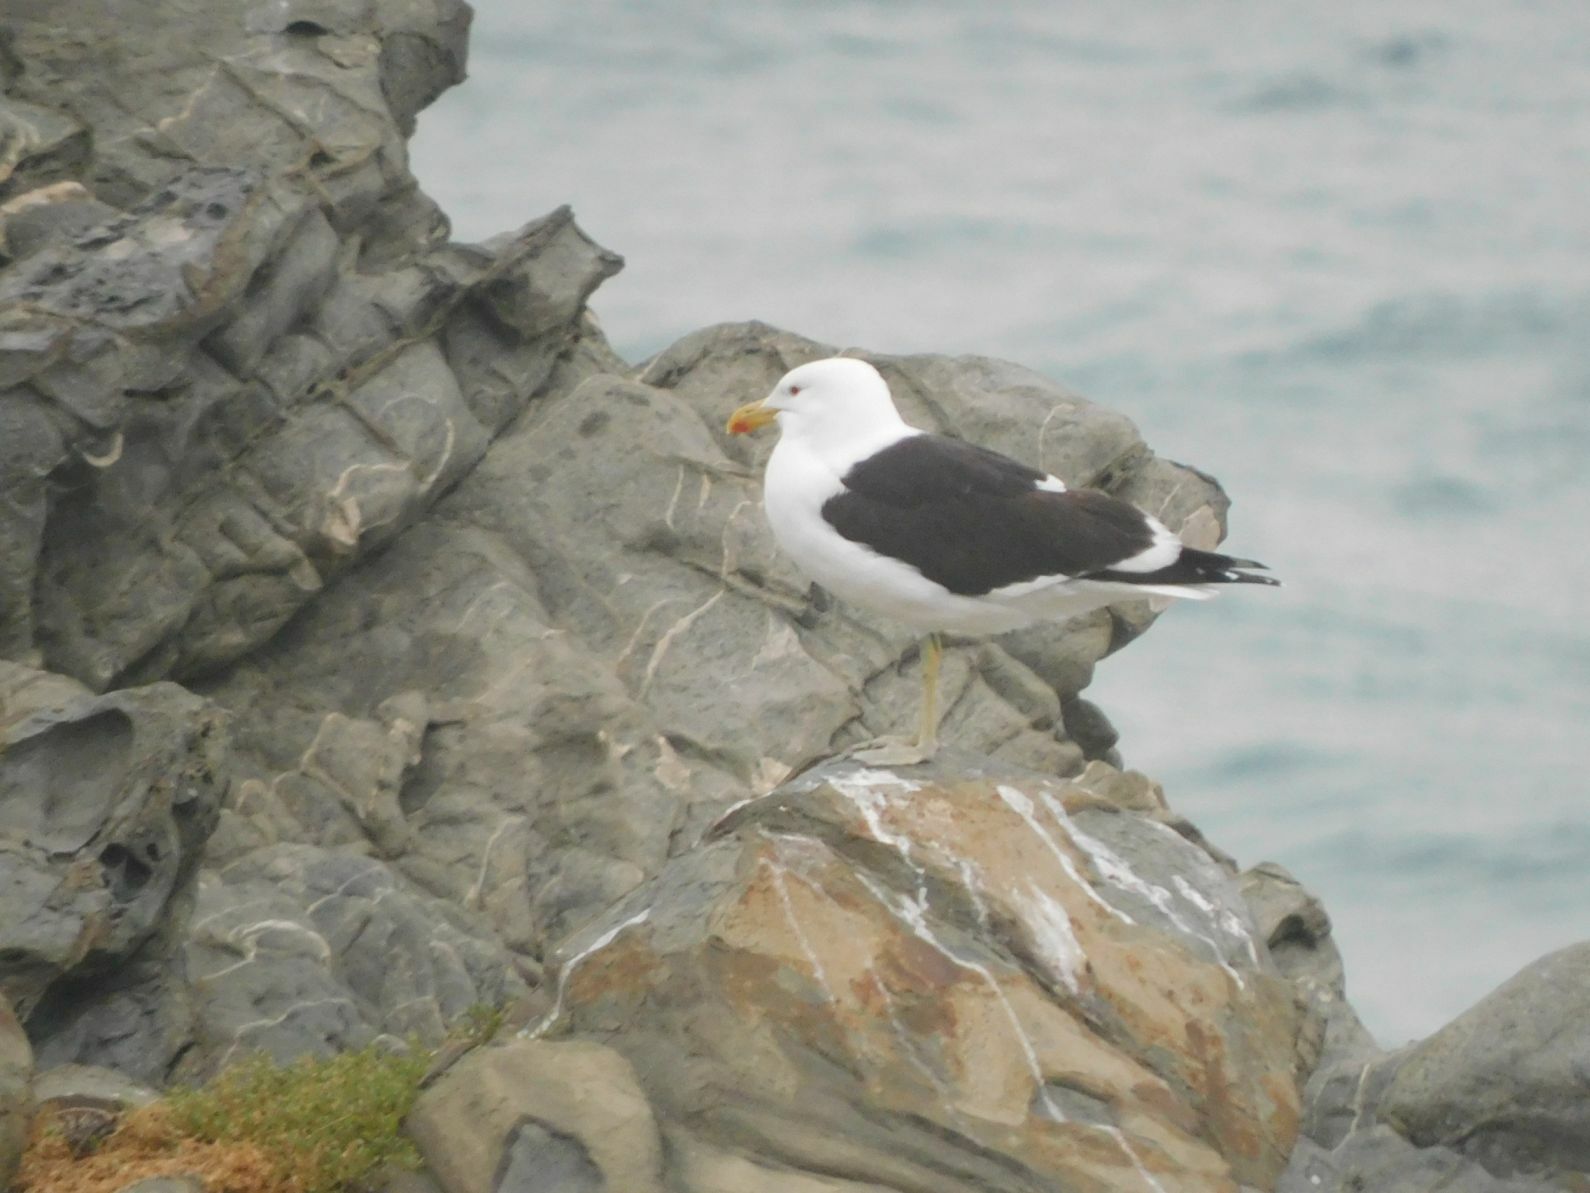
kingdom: Animalia
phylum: Chordata
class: Aves
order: Charadriiformes
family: Laridae
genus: Larus
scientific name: Larus dominicanus
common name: Kelp gull
